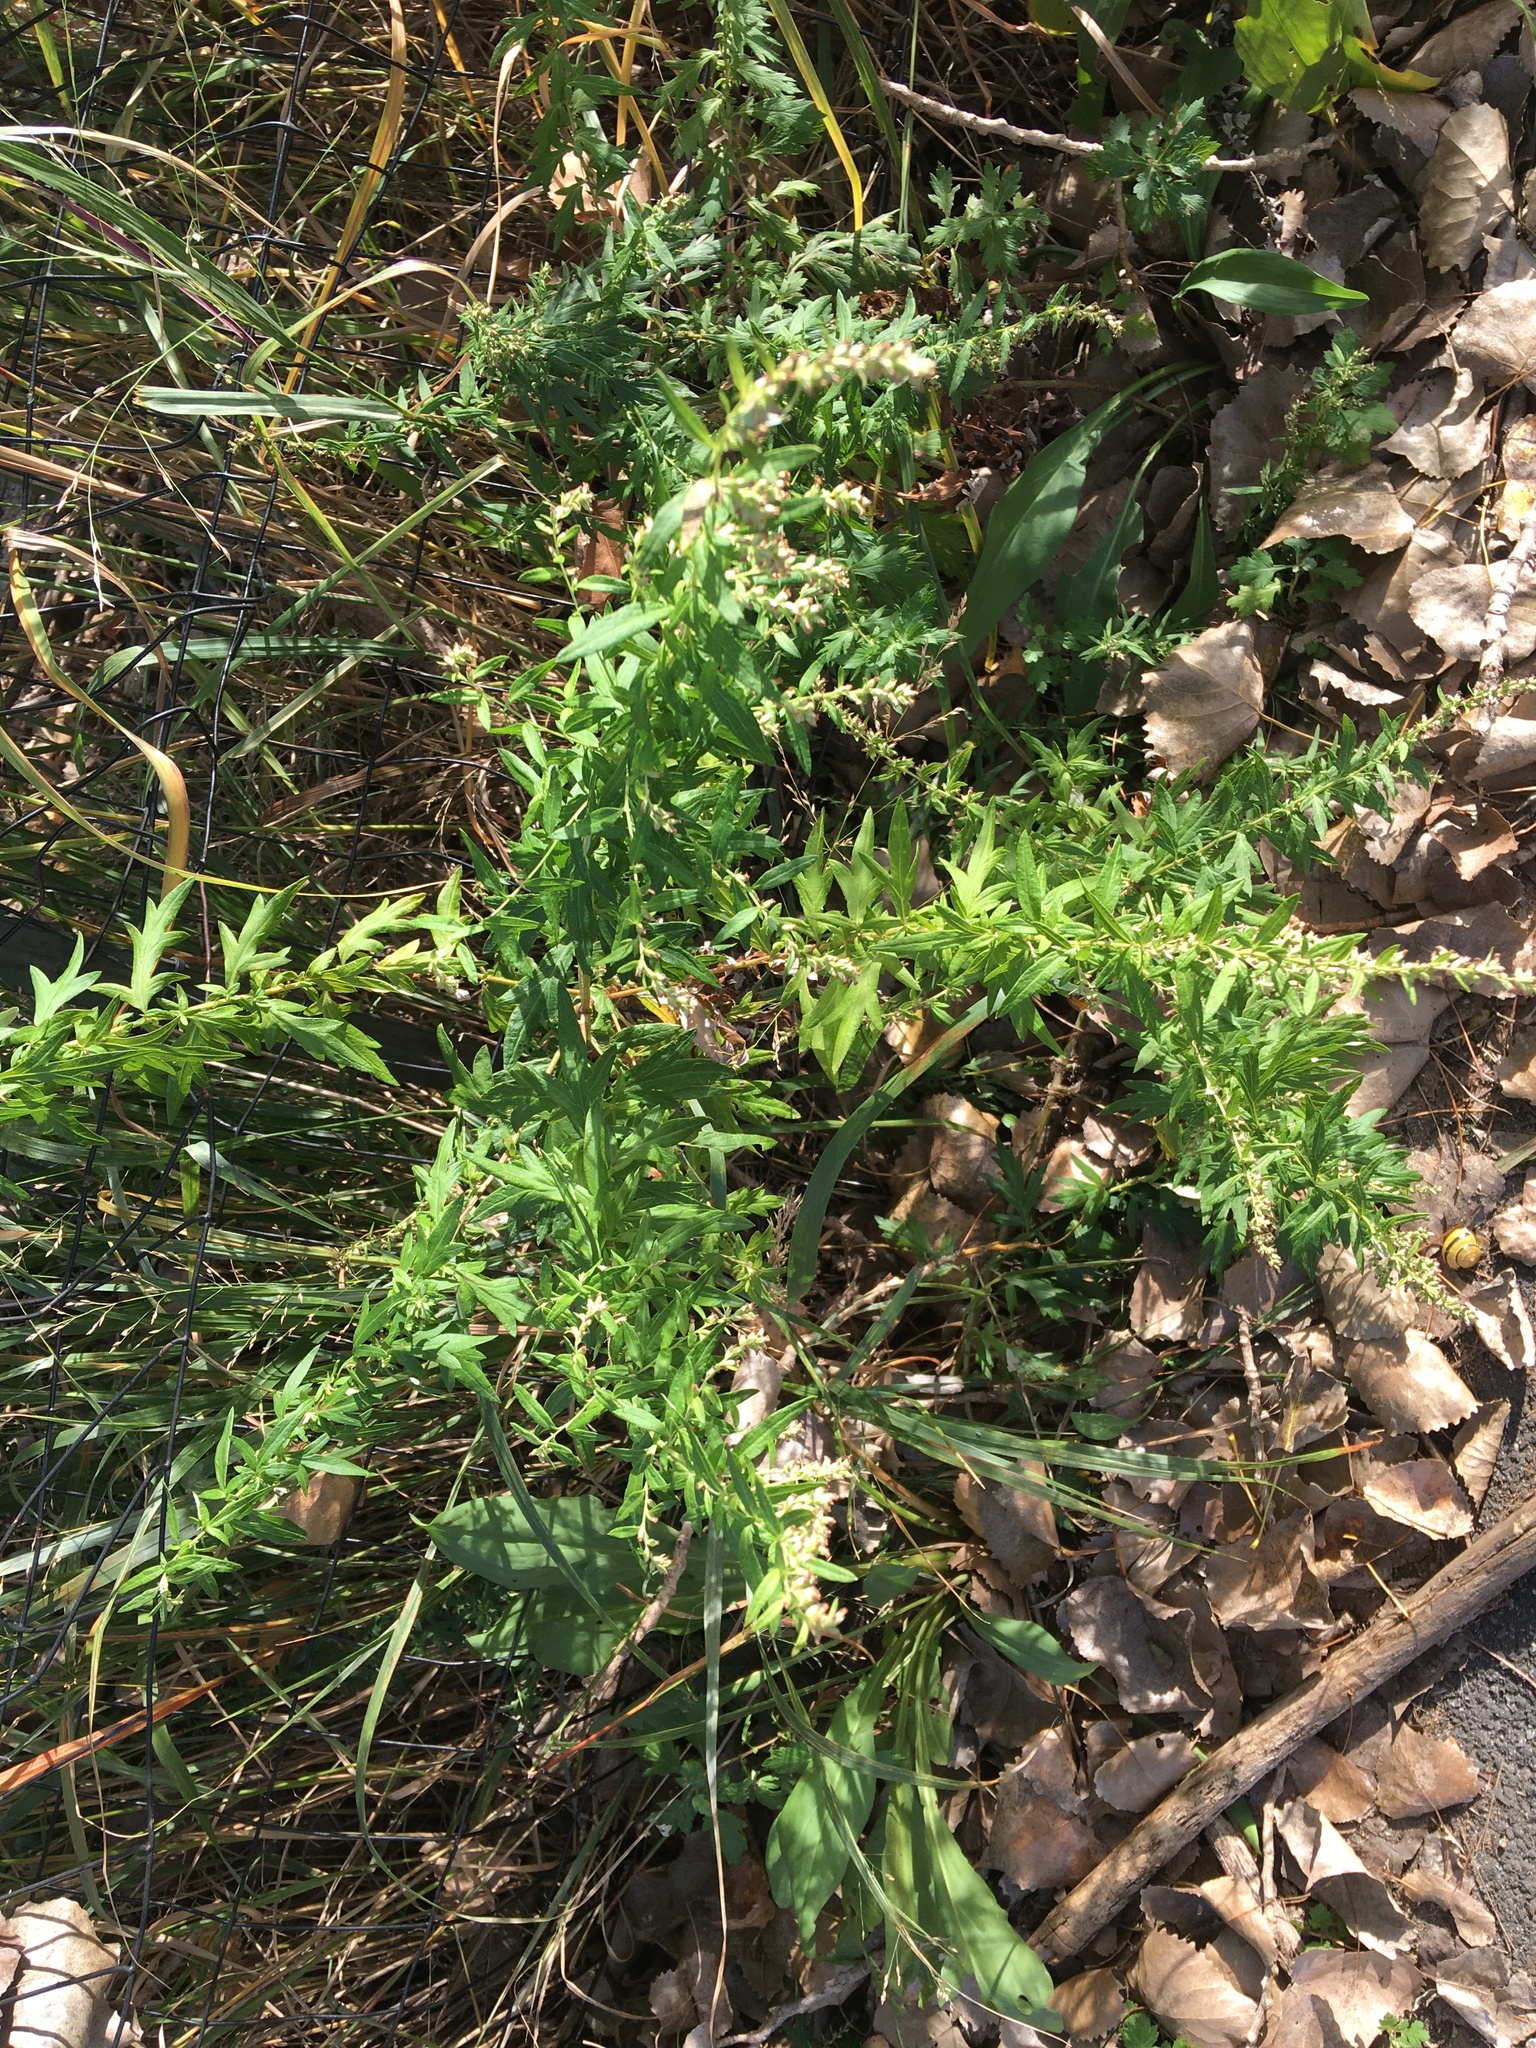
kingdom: Plantae
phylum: Tracheophyta
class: Magnoliopsida
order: Asterales
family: Asteraceae
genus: Artemisia
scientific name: Artemisia vulgaris
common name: Mugwort
